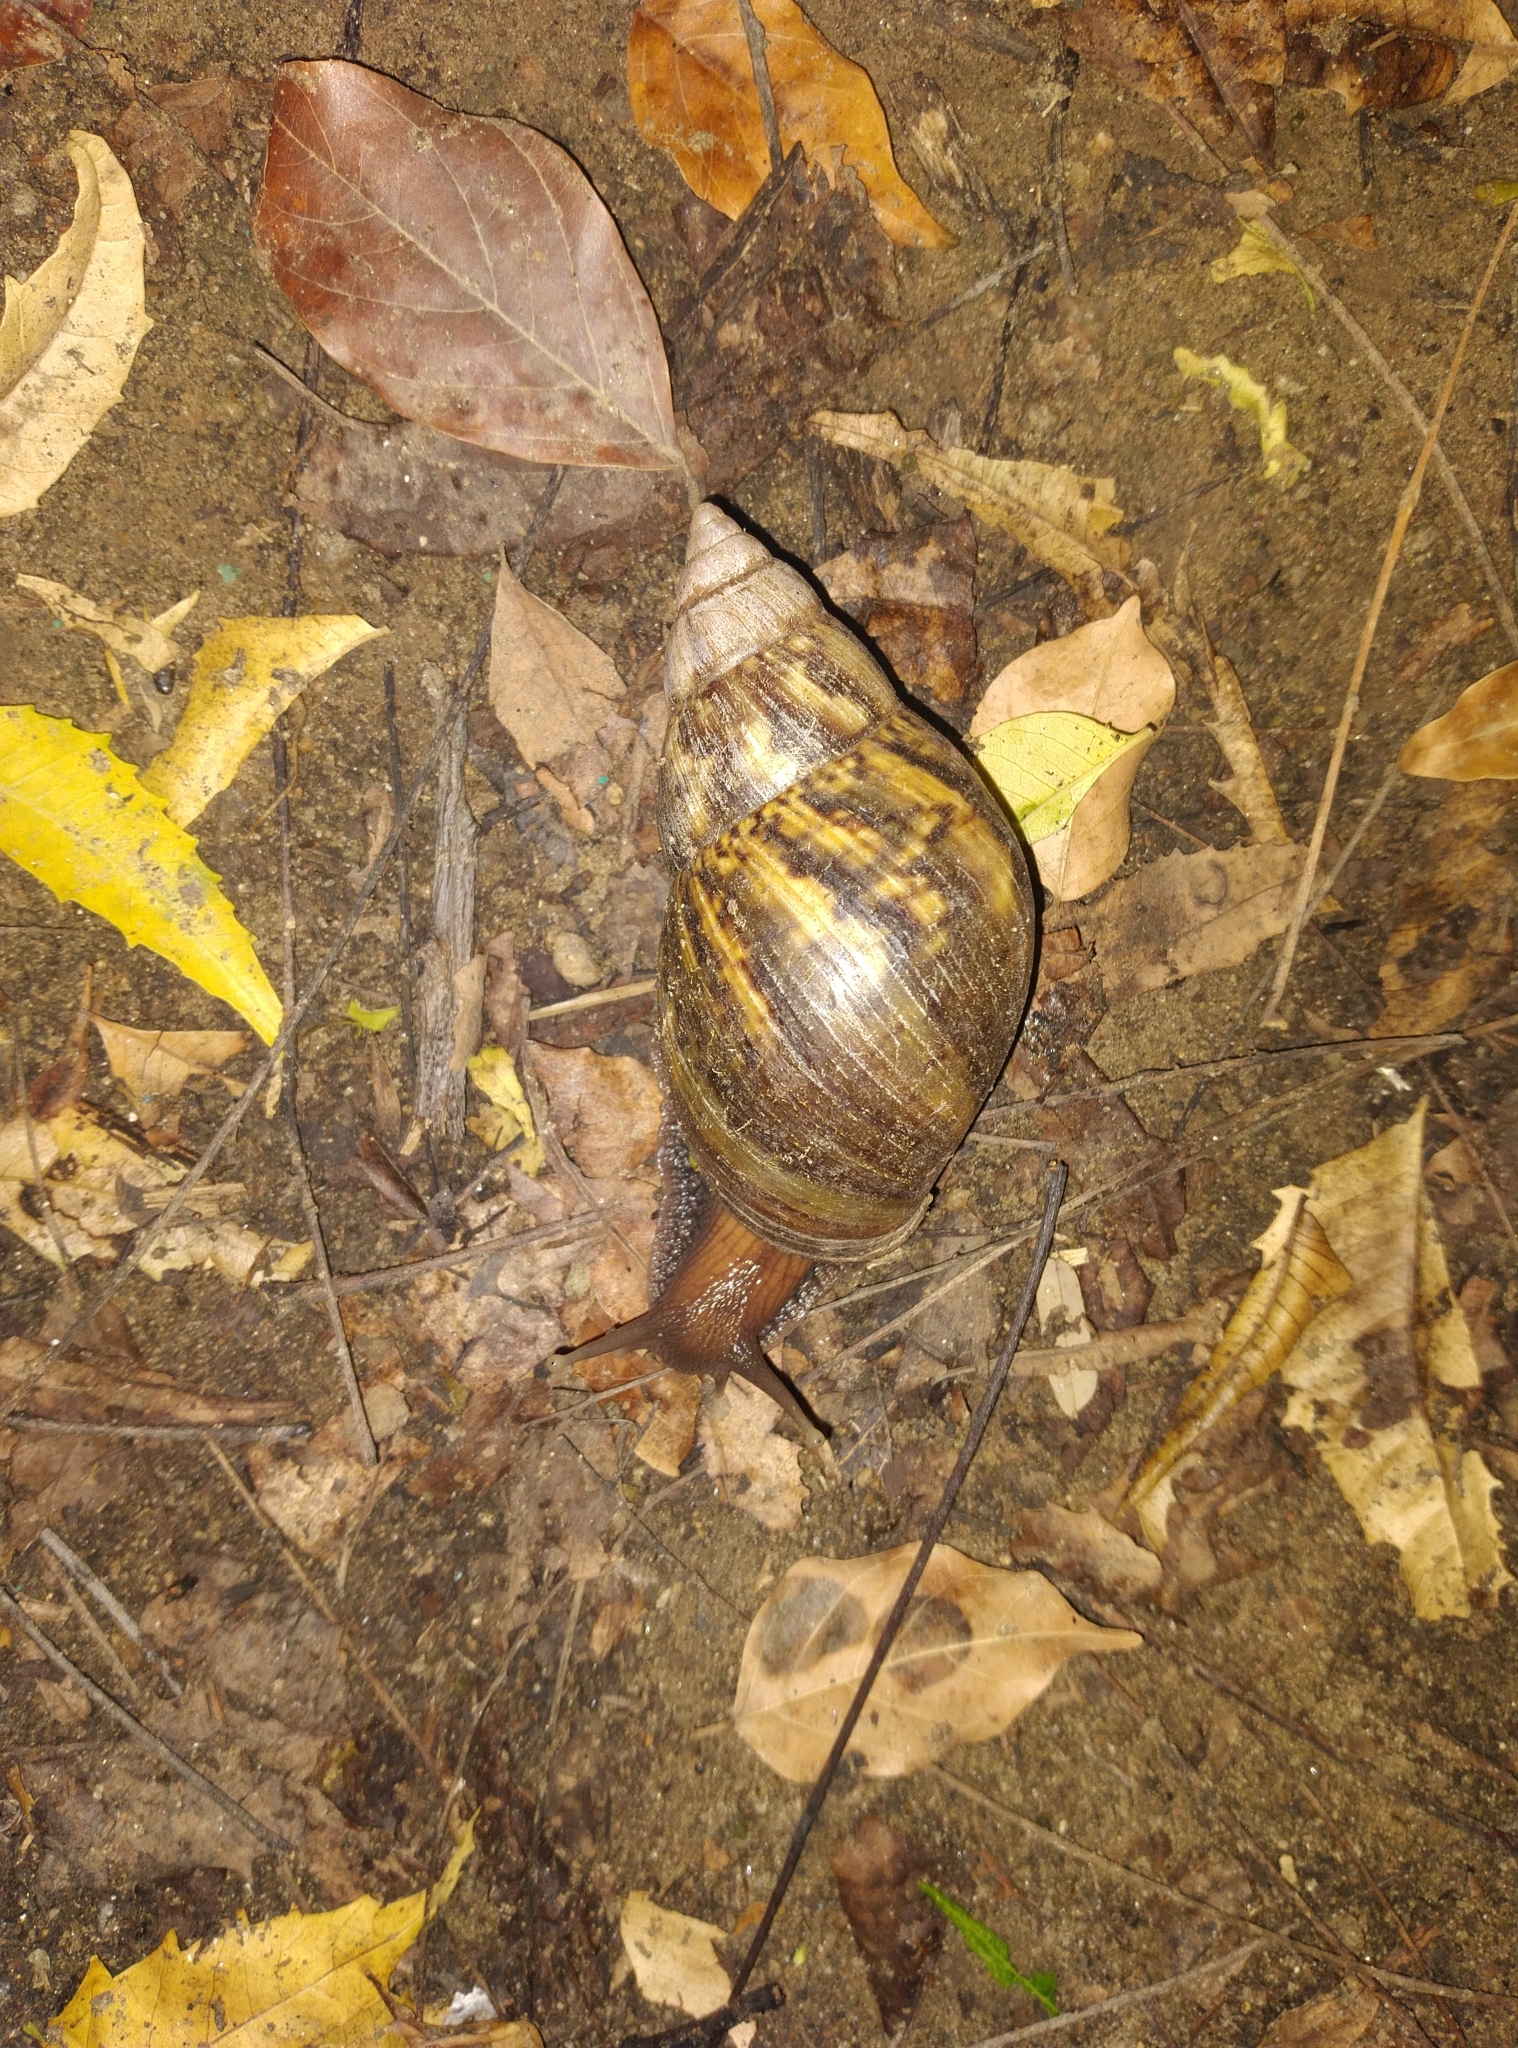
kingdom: Animalia
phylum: Mollusca
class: Gastropoda
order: Stylommatophora
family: Achatinidae
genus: Lissachatina
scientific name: Lissachatina fulica
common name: Giant african snail
